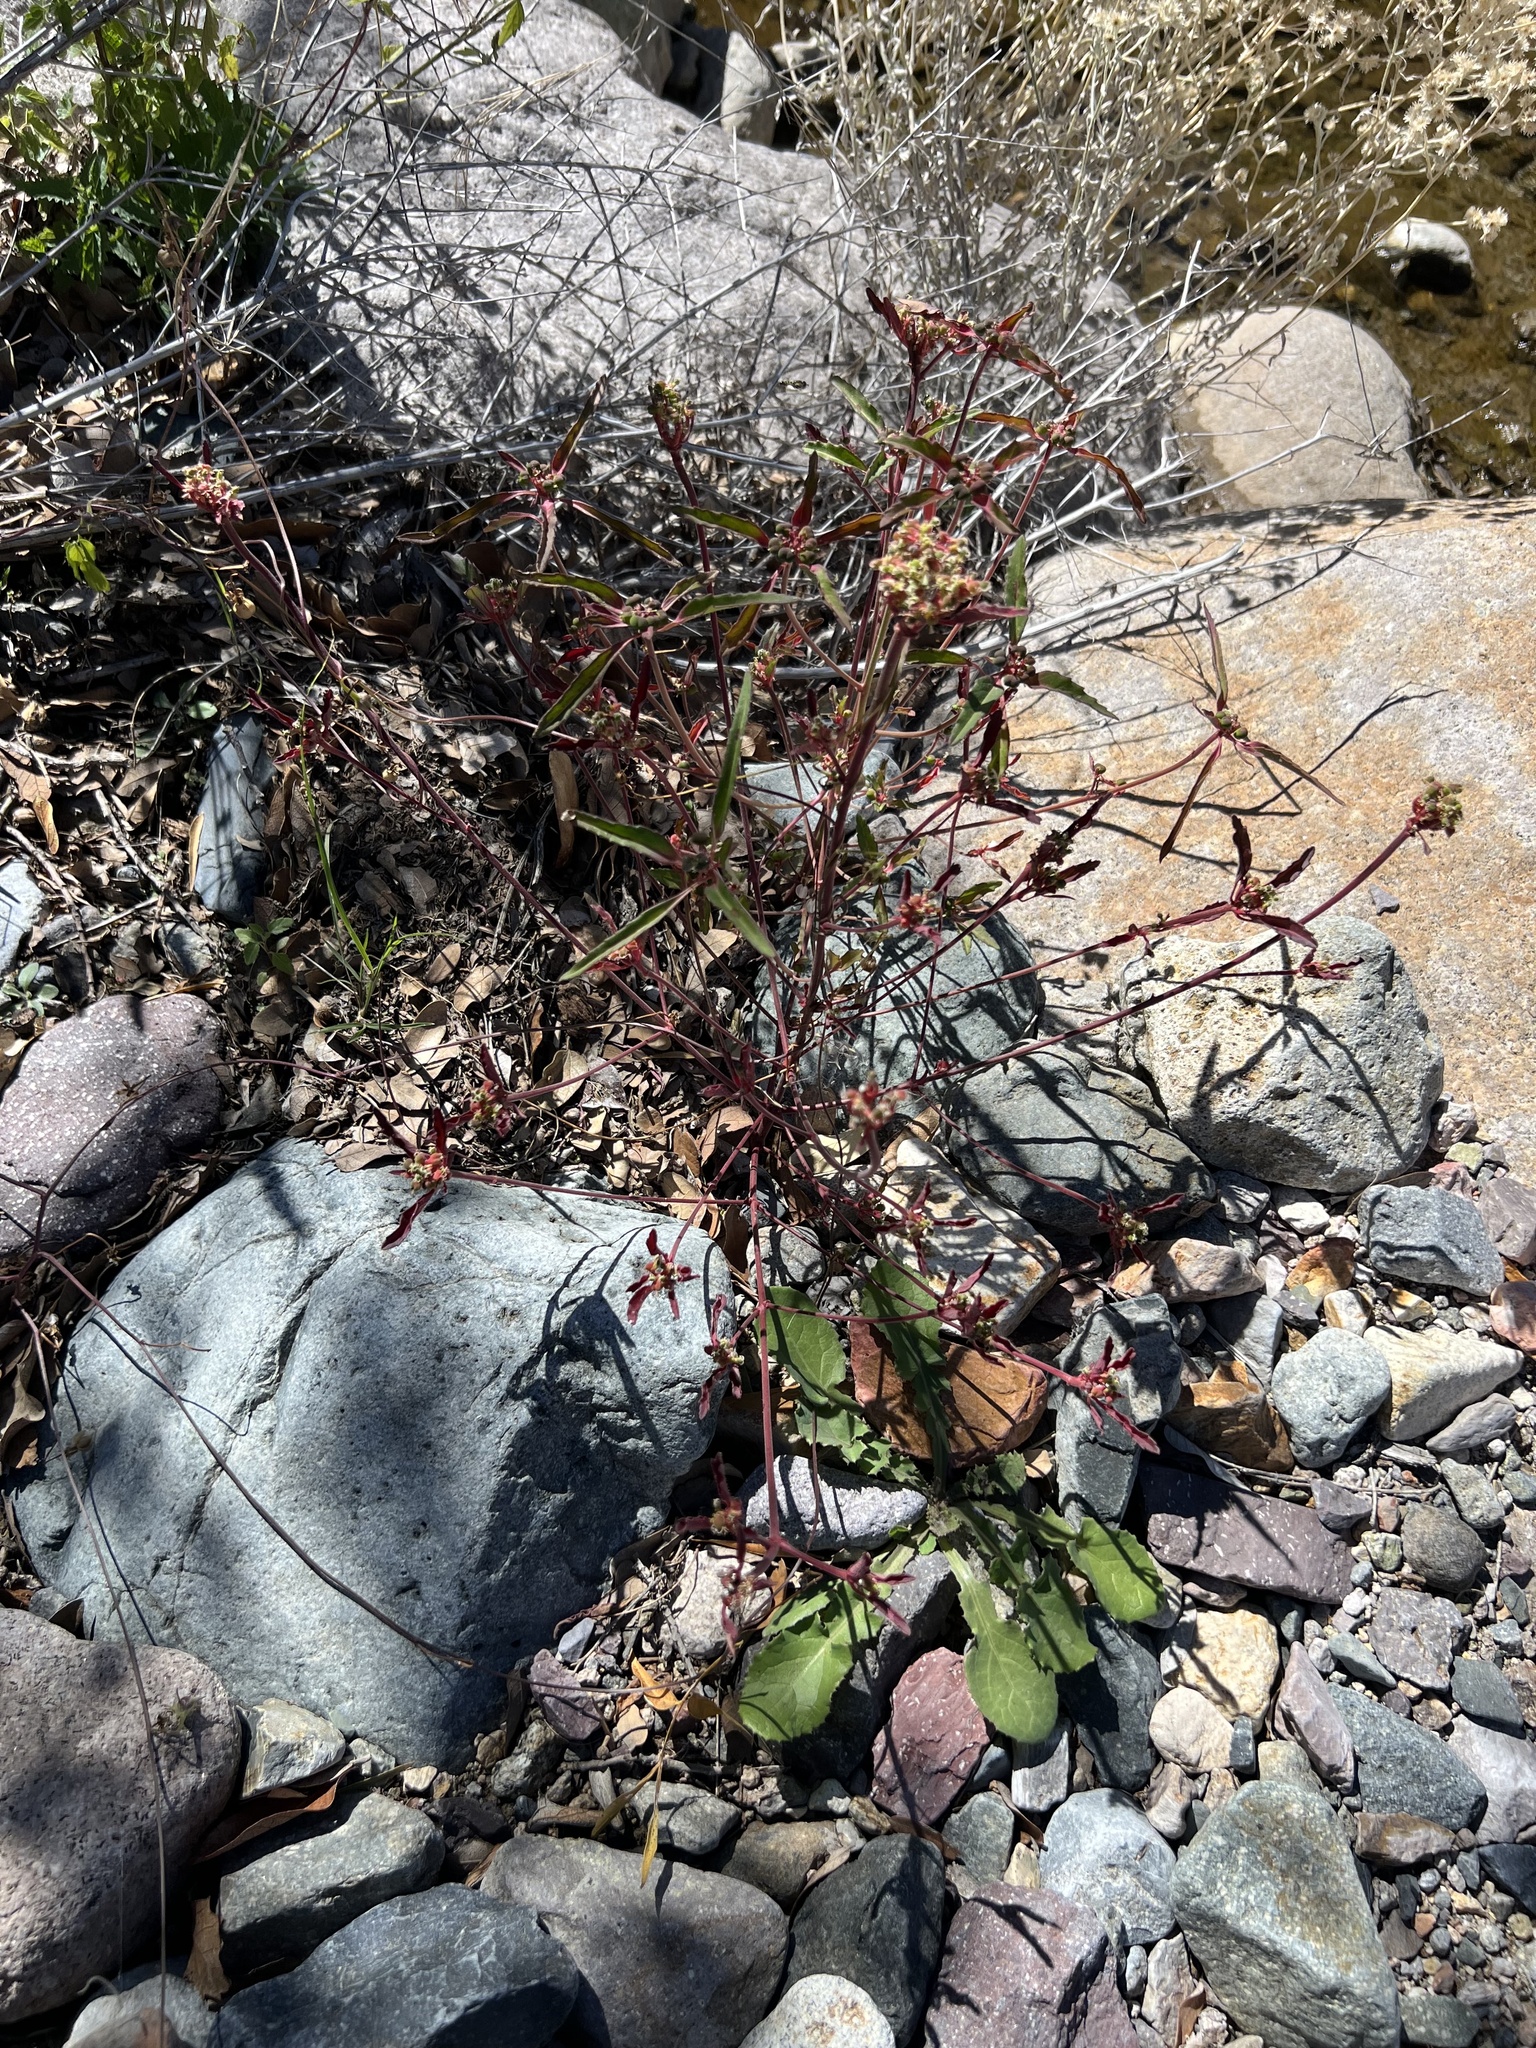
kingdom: Plantae
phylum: Tracheophyta
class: Magnoliopsida
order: Malpighiales
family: Euphorbiaceae
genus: Euphorbia
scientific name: Euphorbia davidii
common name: David's spurge
